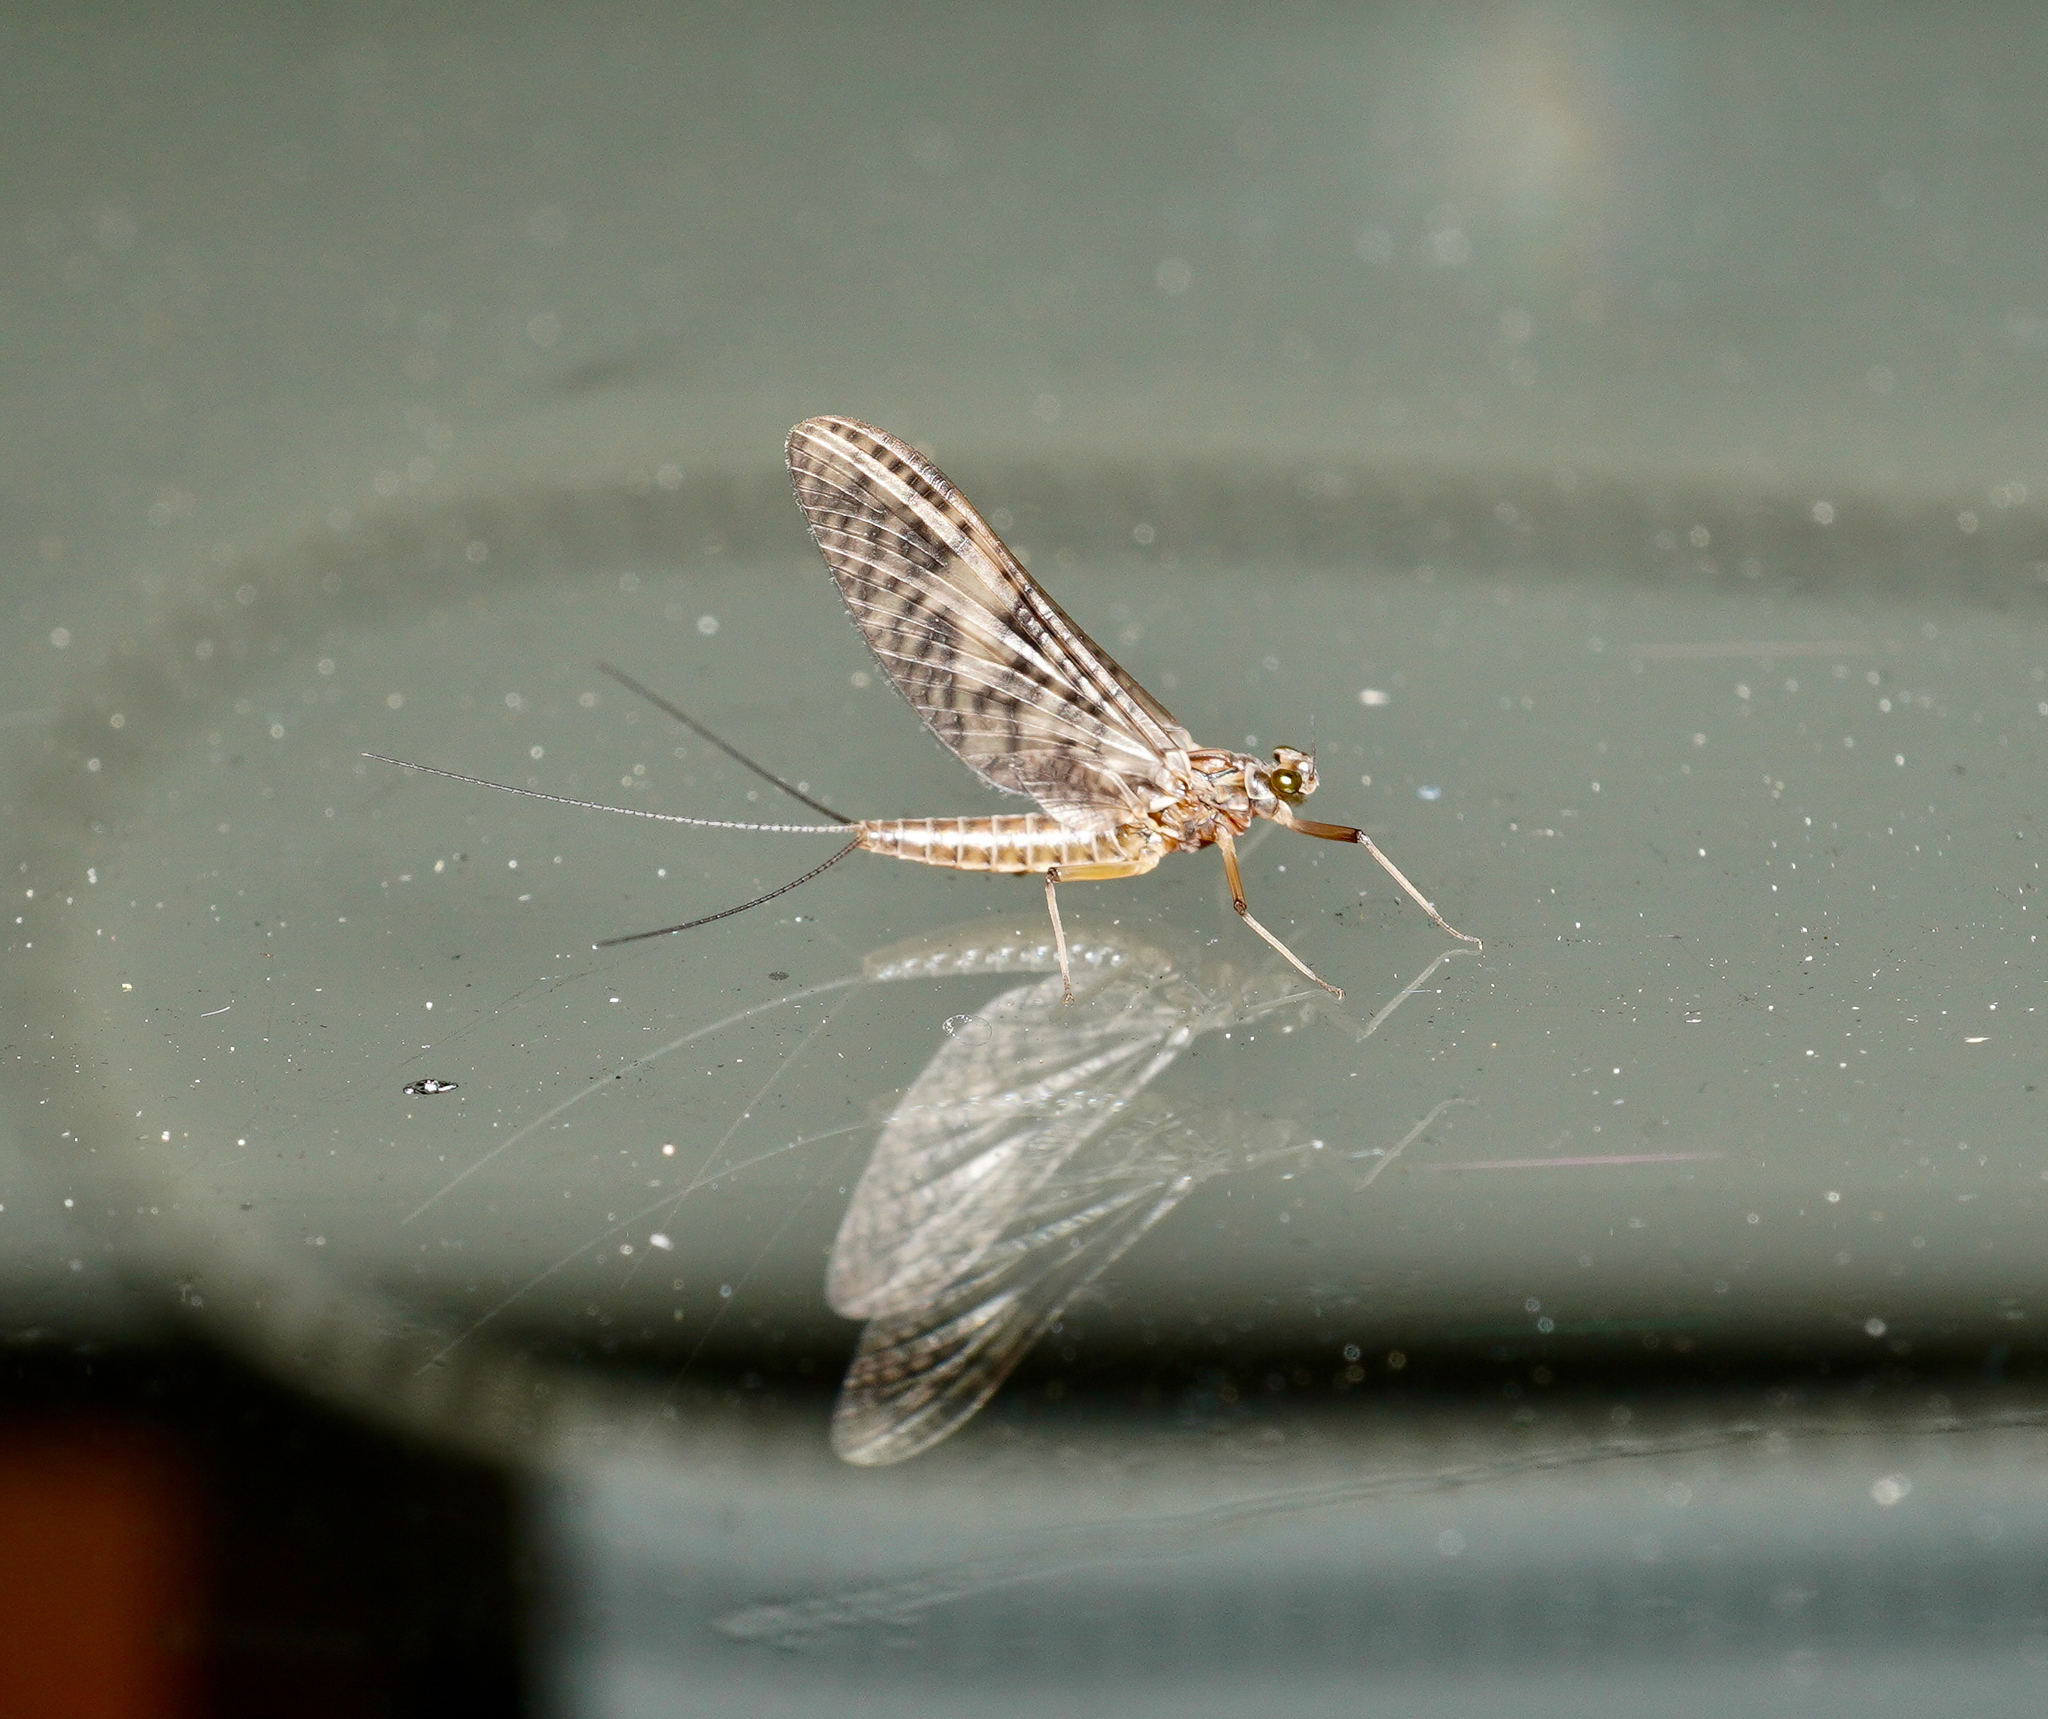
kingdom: Animalia
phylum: Arthropoda
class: Insecta
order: Ephemeroptera
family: Leptophlebiidae
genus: Deleatidium
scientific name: Deleatidium autumnale
